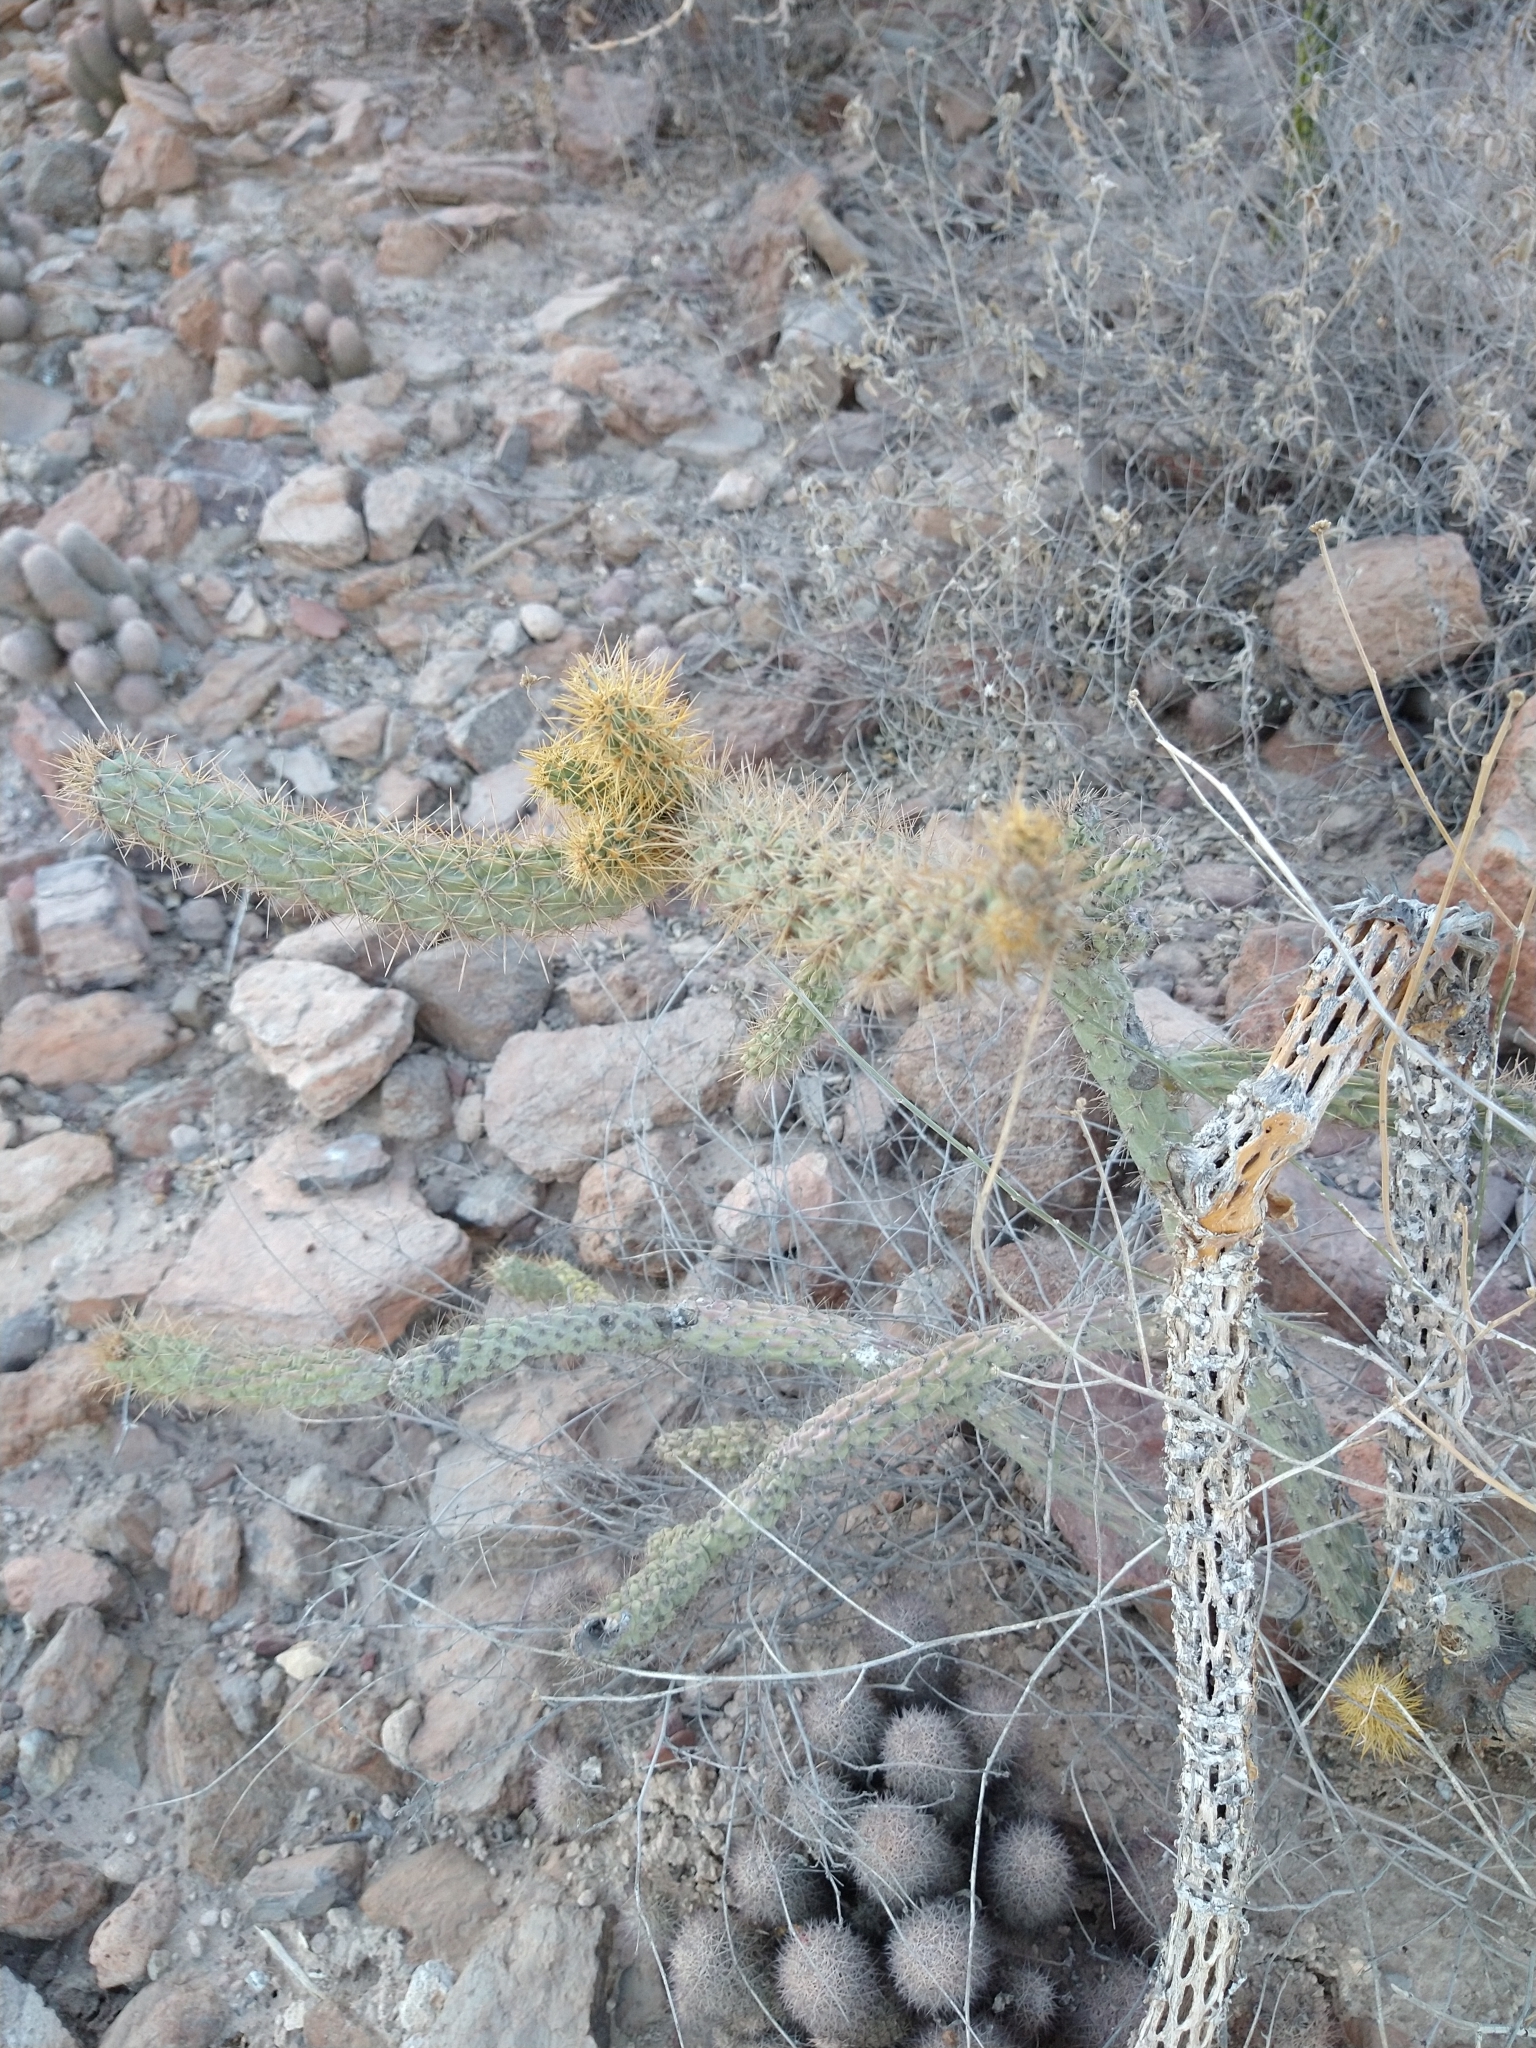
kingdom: Plantae
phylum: Tracheophyta
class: Magnoliopsida
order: Caryophyllales
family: Cactaceae
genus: Cylindropuntia
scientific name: Cylindropuntia alcahes
